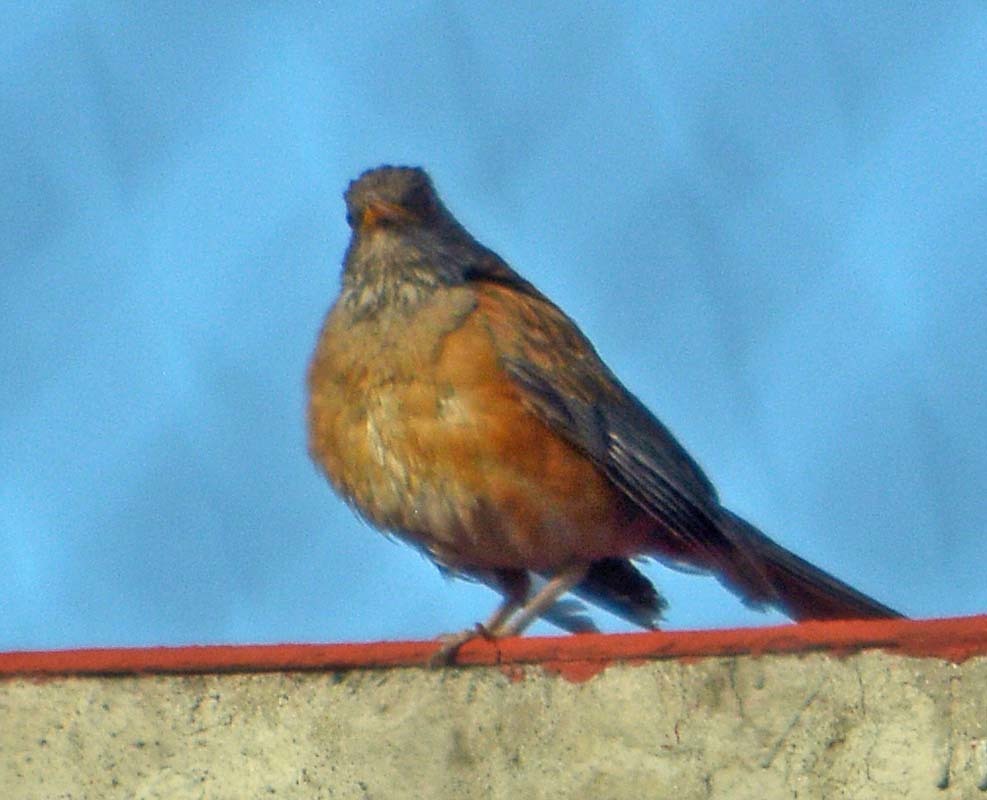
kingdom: Animalia
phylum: Chordata
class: Aves
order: Passeriformes
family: Turdidae
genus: Turdus
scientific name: Turdus rufopalliatus
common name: Rufous-backed robin
